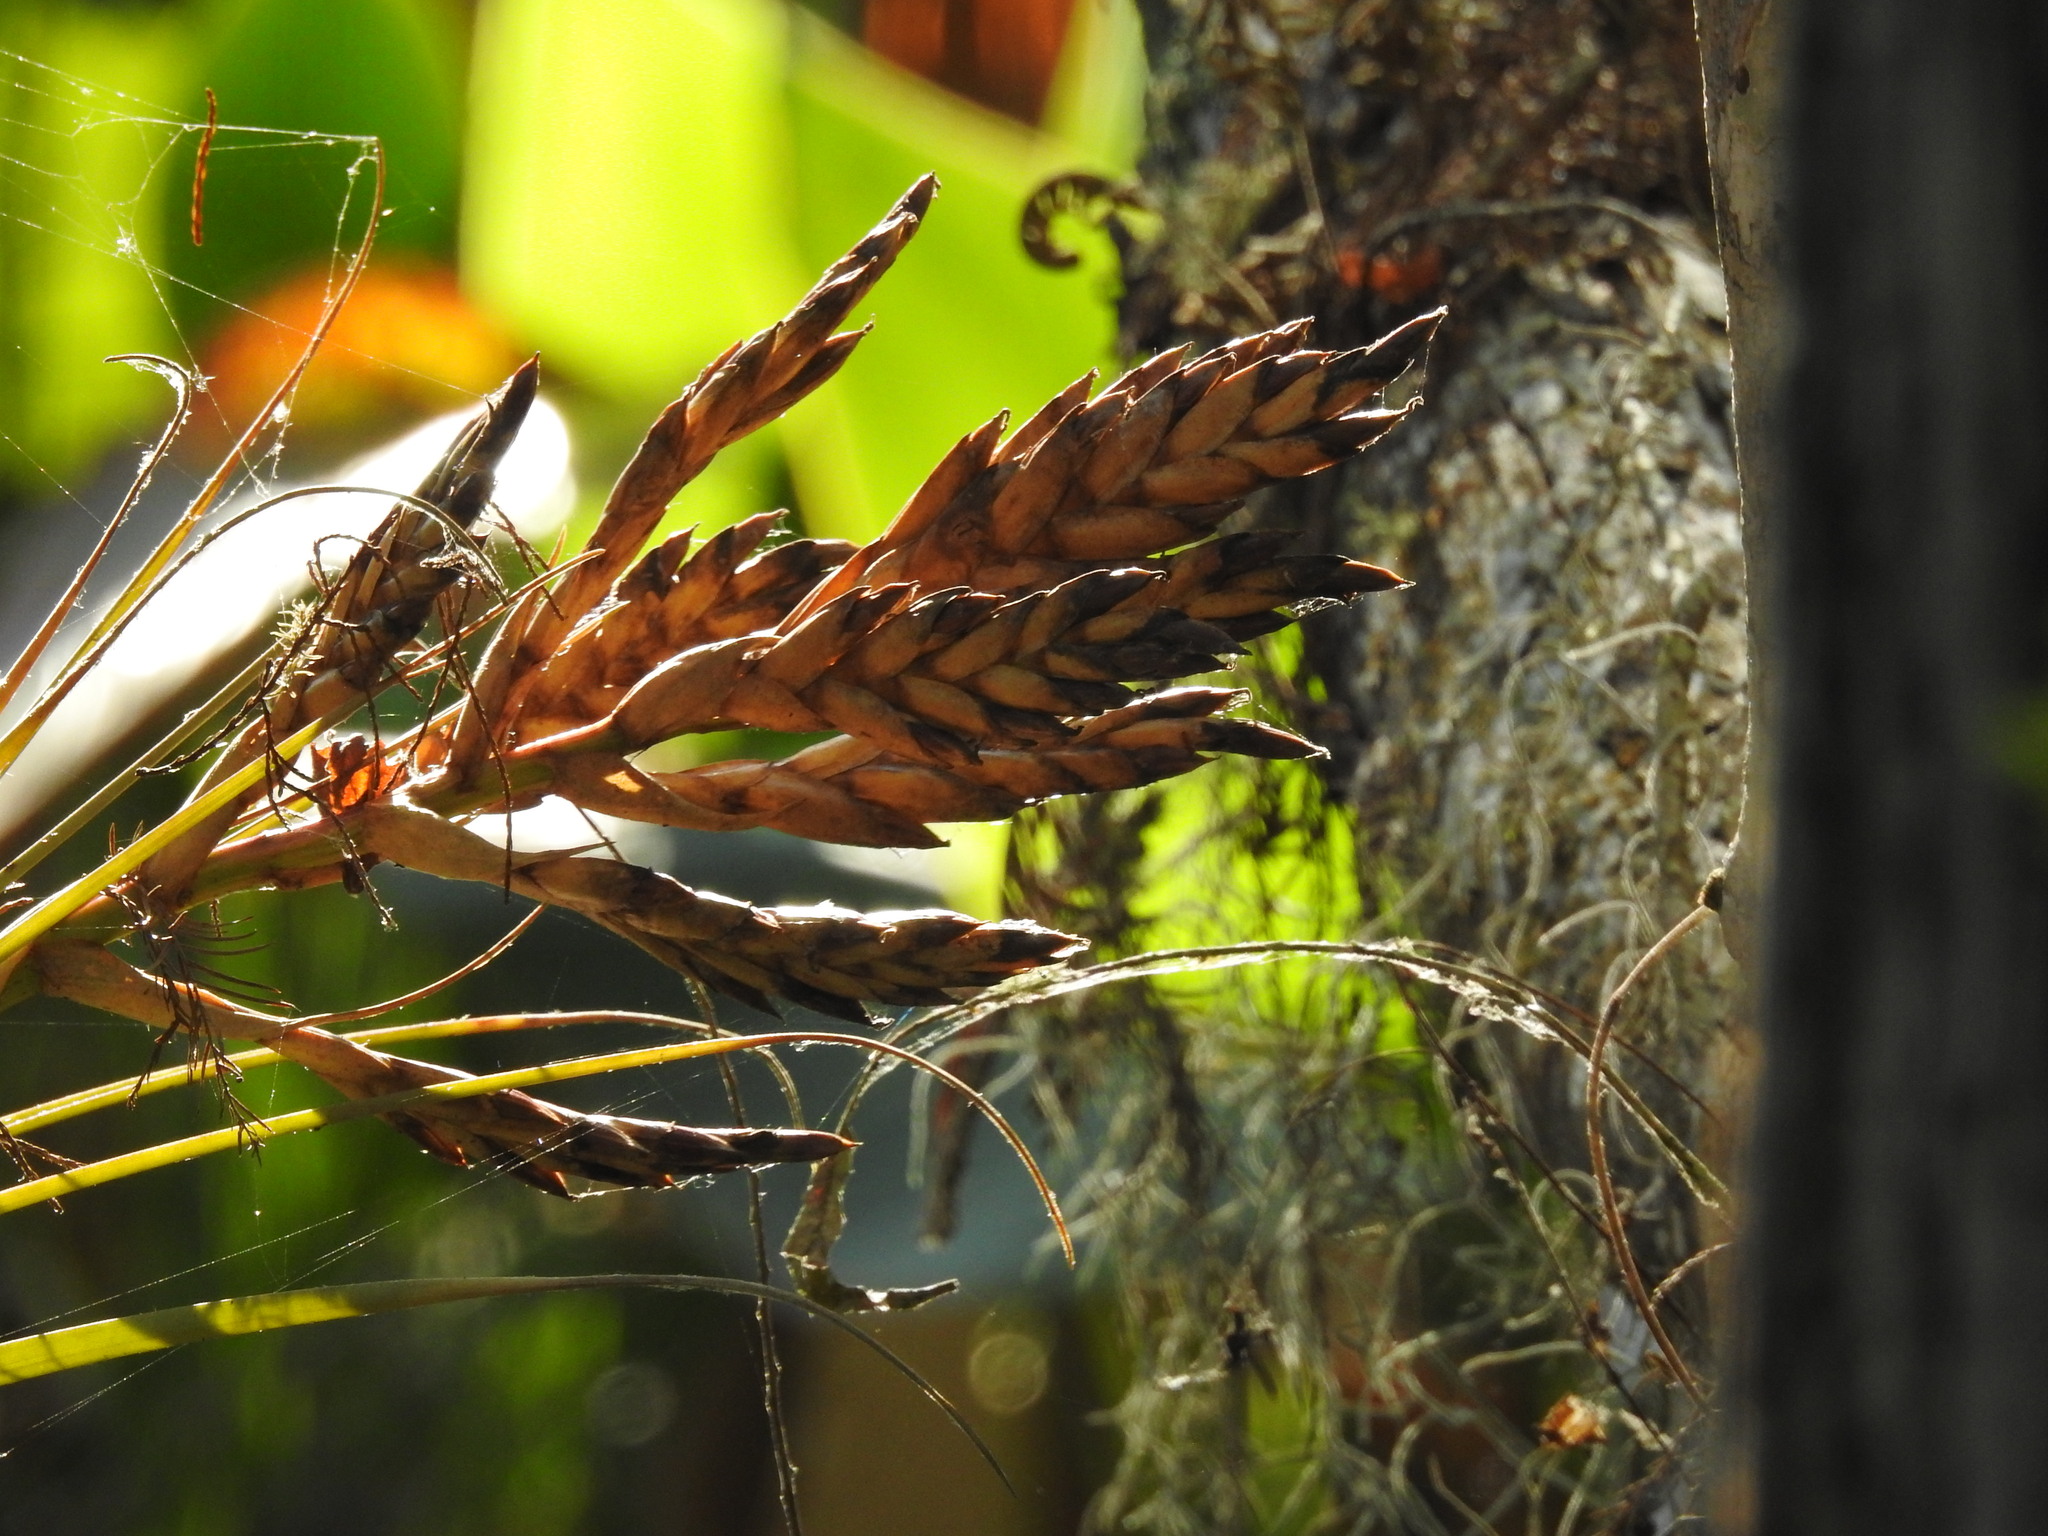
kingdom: Plantae
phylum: Tracheophyta
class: Liliopsida
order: Poales
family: Bromeliaceae
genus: Tillandsia
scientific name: Tillandsia fasciculata
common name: Giant airplant
